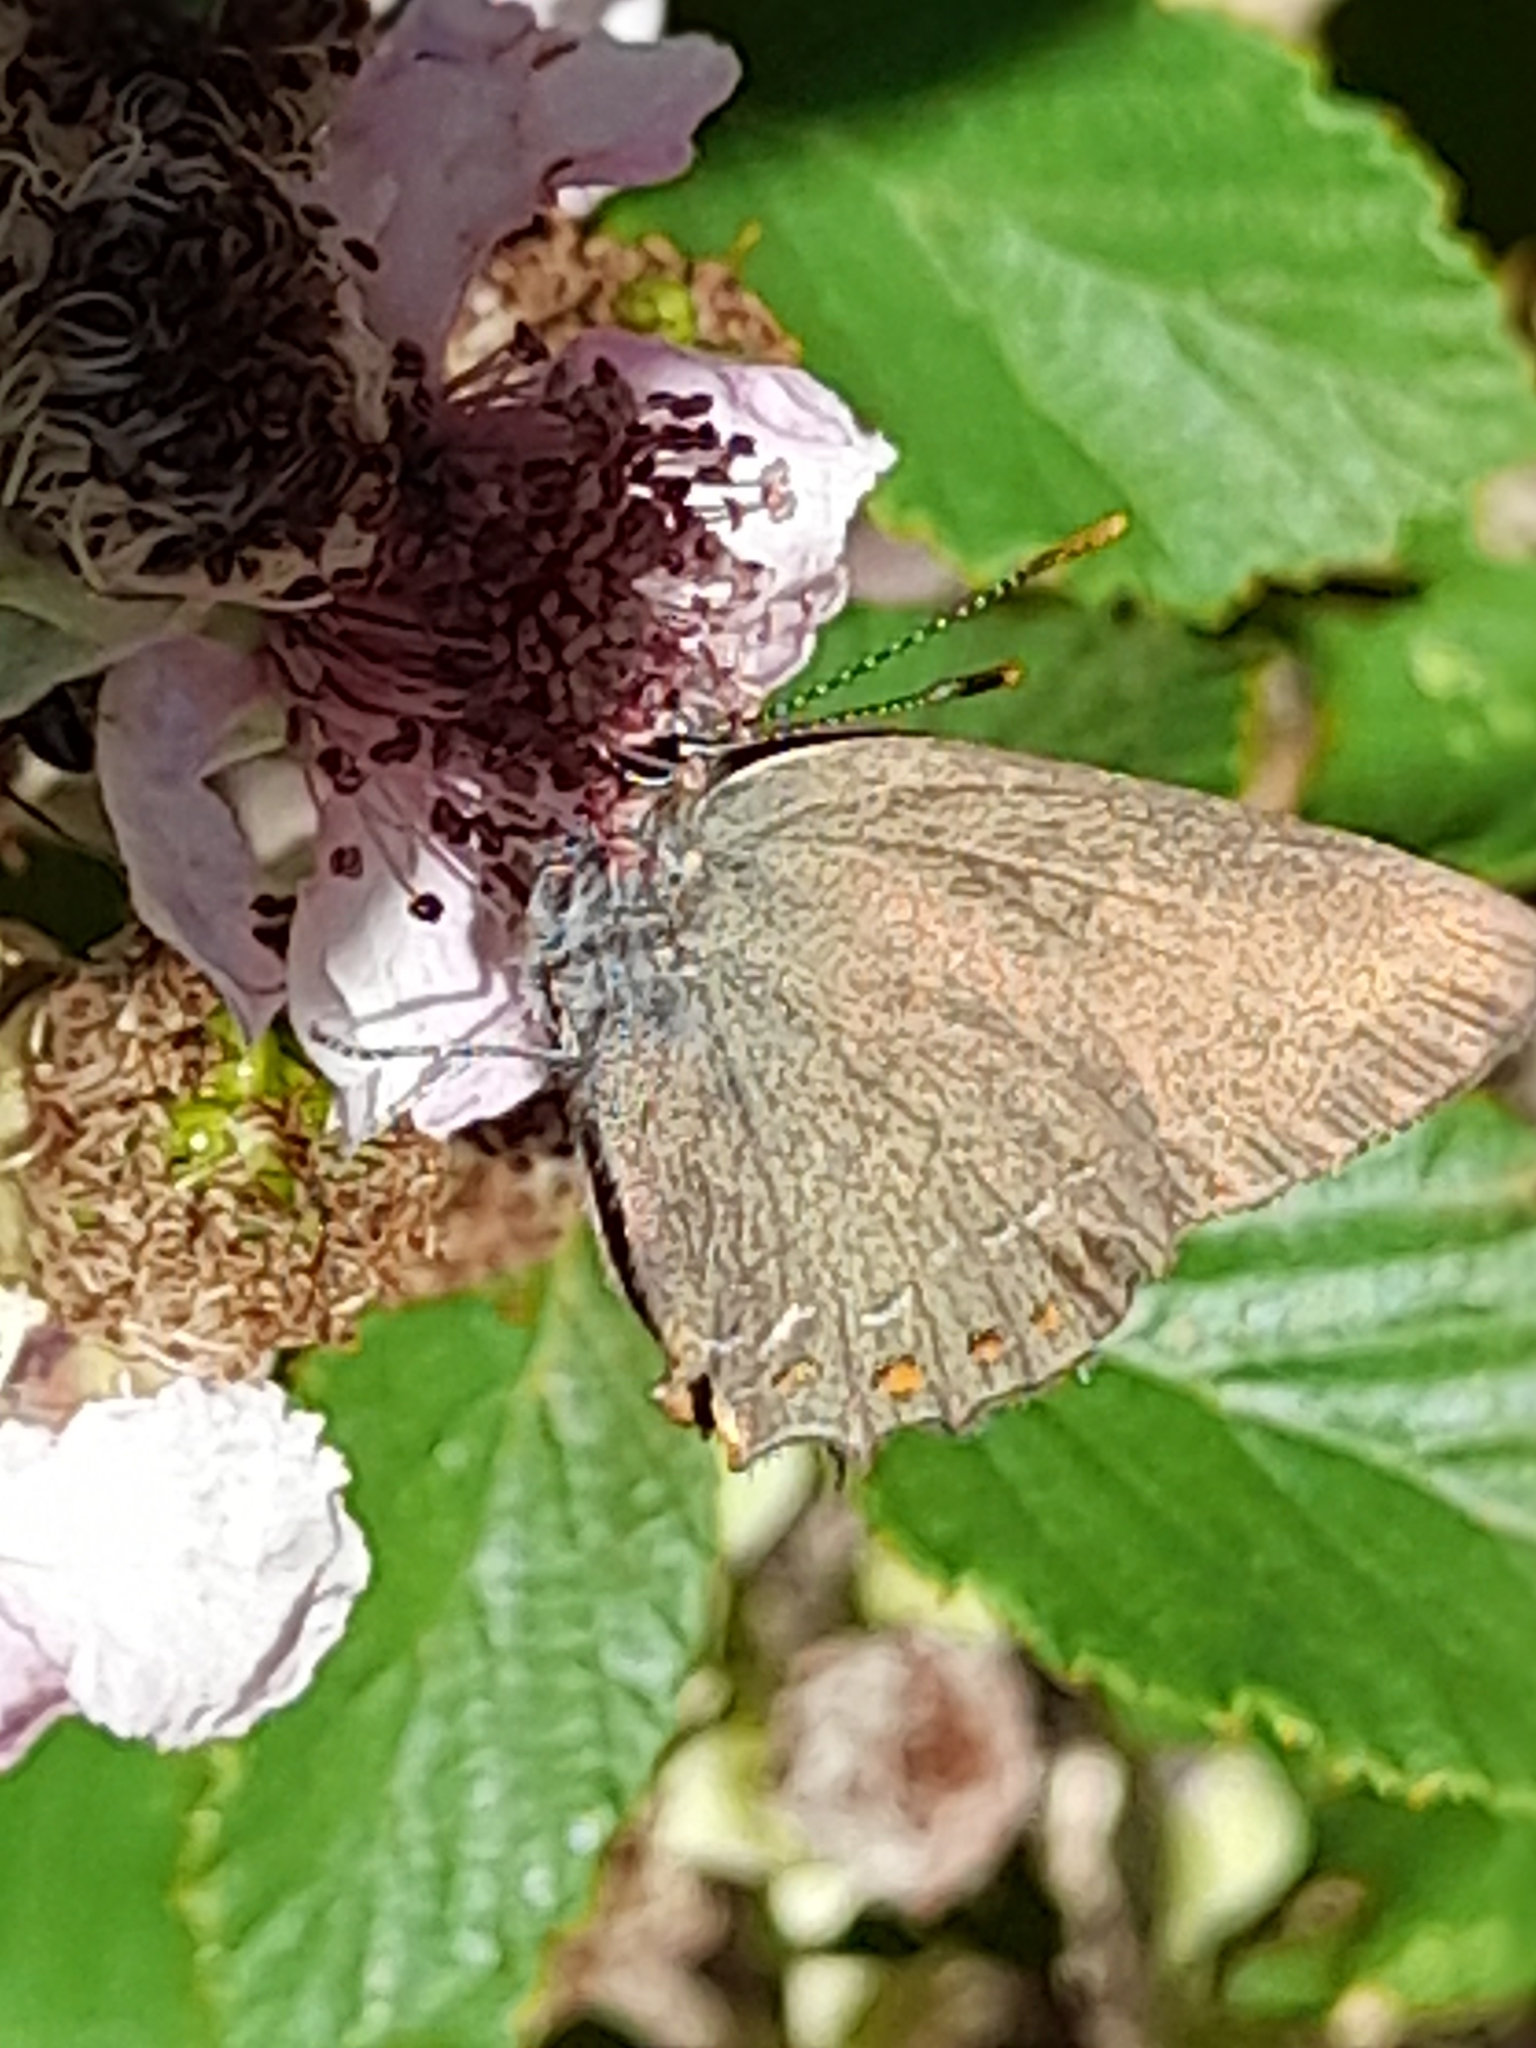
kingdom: Animalia
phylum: Arthropoda
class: Insecta
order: Lepidoptera
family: Lycaenidae
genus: Fixsenia
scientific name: Fixsenia esculi
